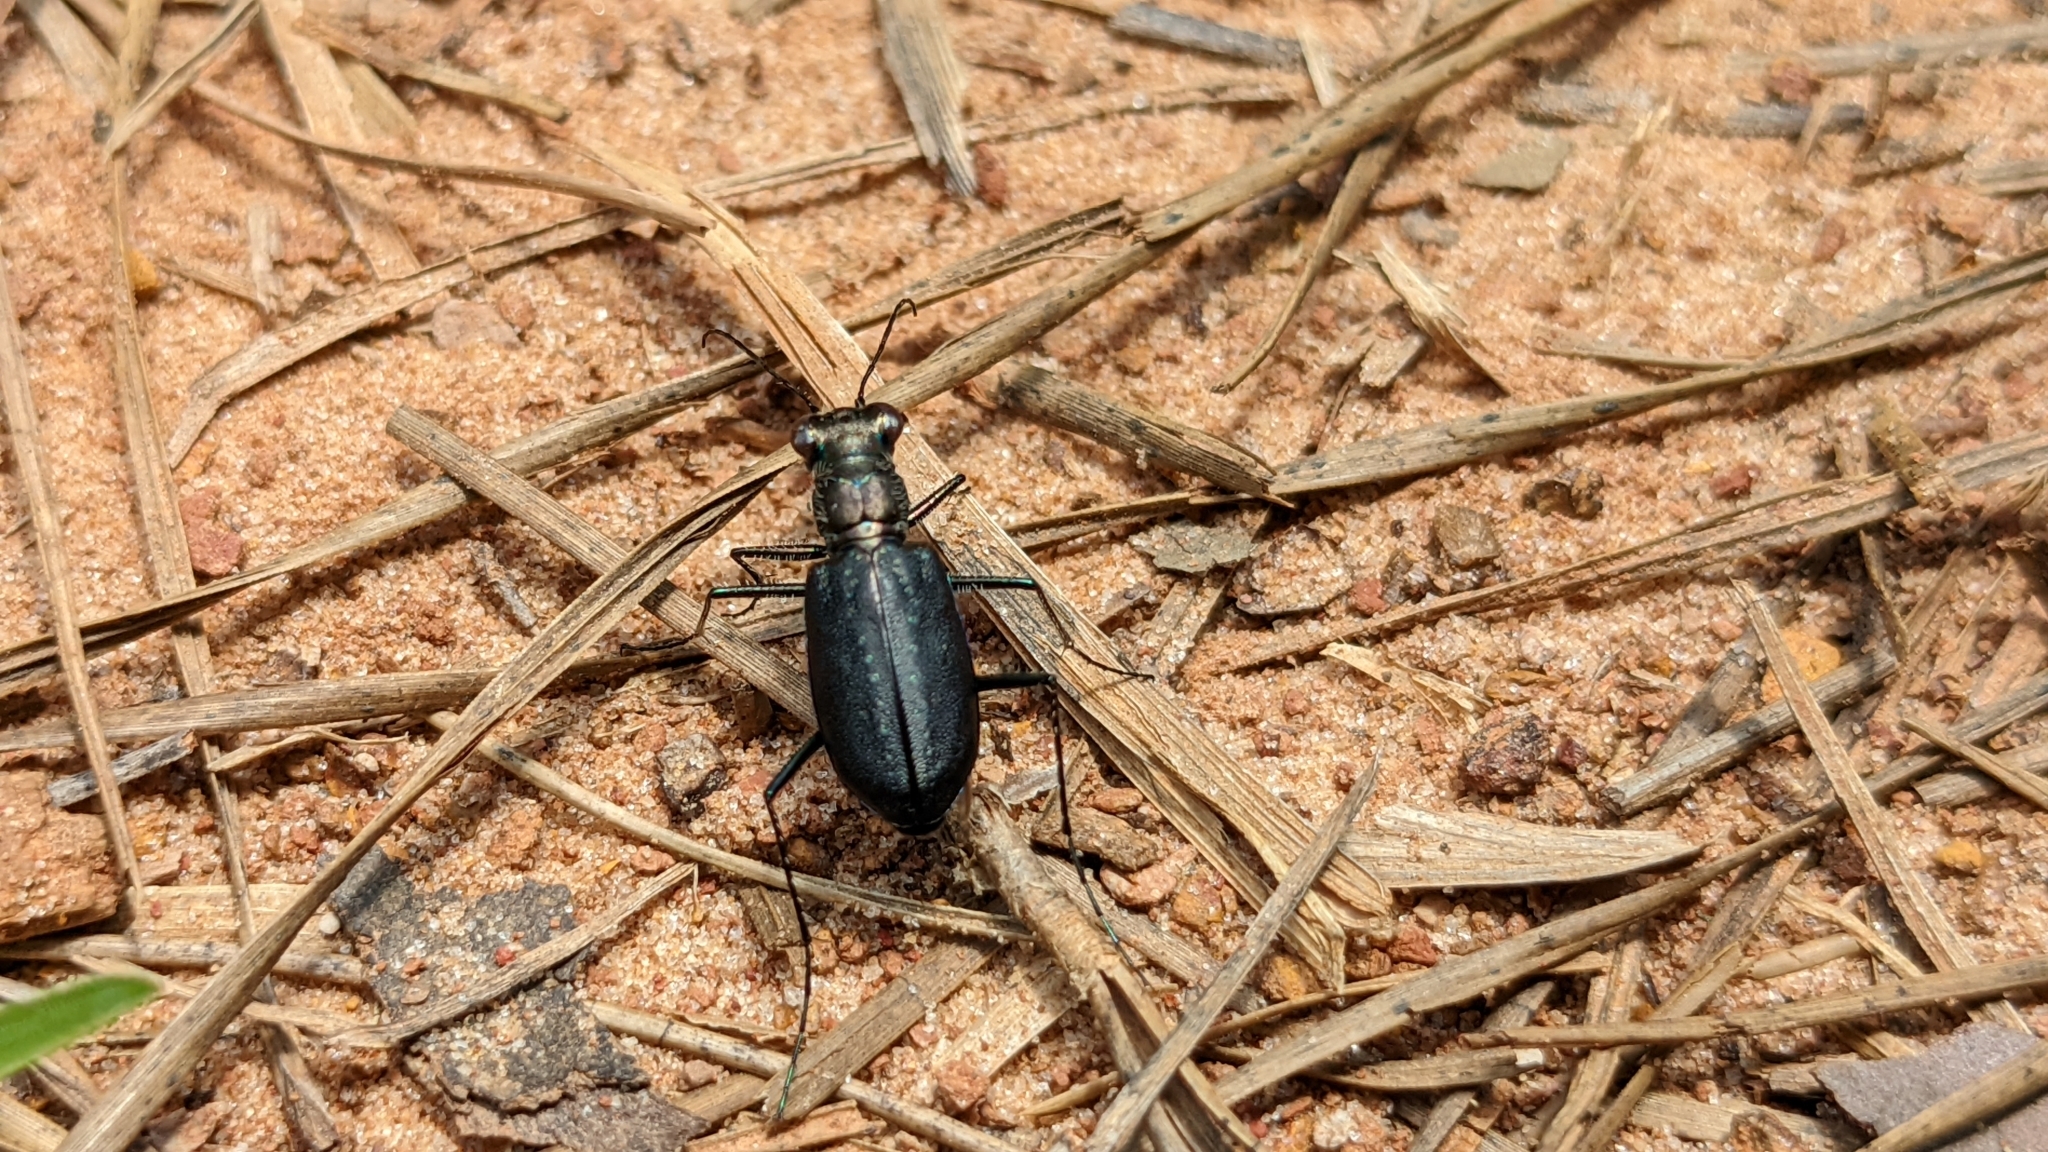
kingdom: Animalia
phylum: Arthropoda
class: Insecta
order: Coleoptera
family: Carabidae
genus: Cicindela
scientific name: Cicindela punctulata
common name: Punctured tiger beetle
